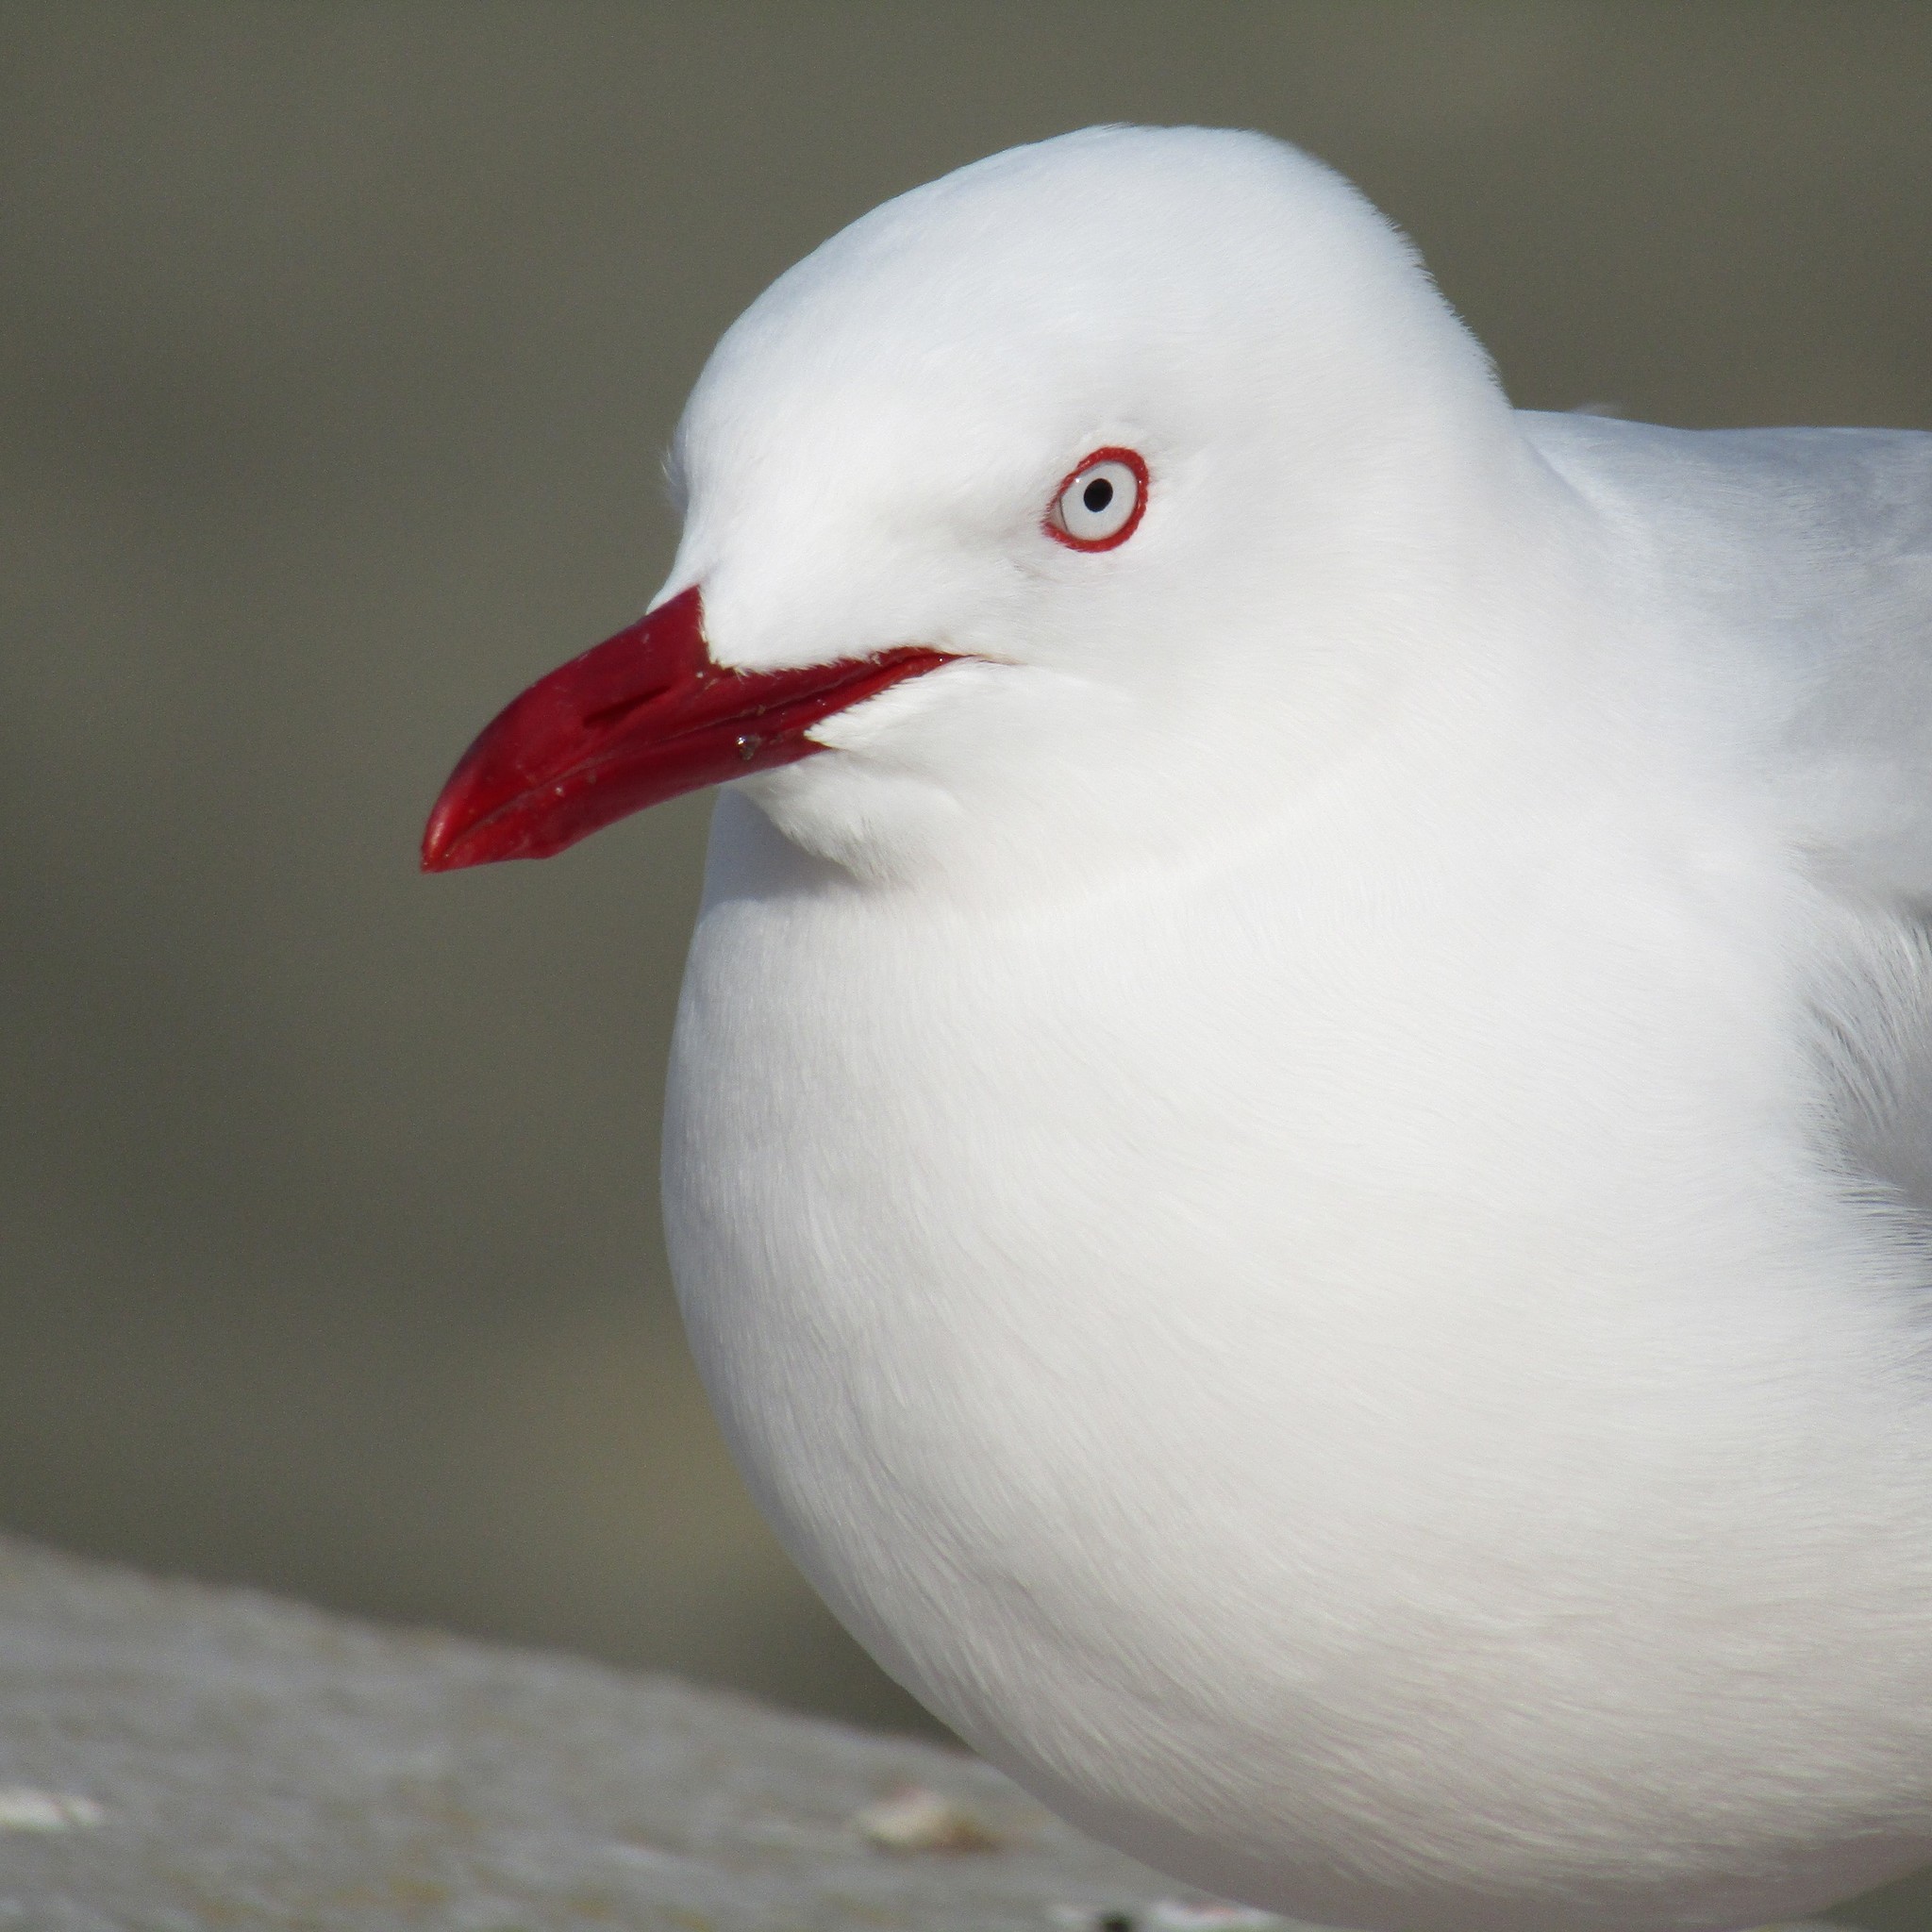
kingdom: Animalia
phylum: Chordata
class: Aves
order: Charadriiformes
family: Laridae
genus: Chroicocephalus
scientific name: Chroicocephalus novaehollandiae
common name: Silver gull
